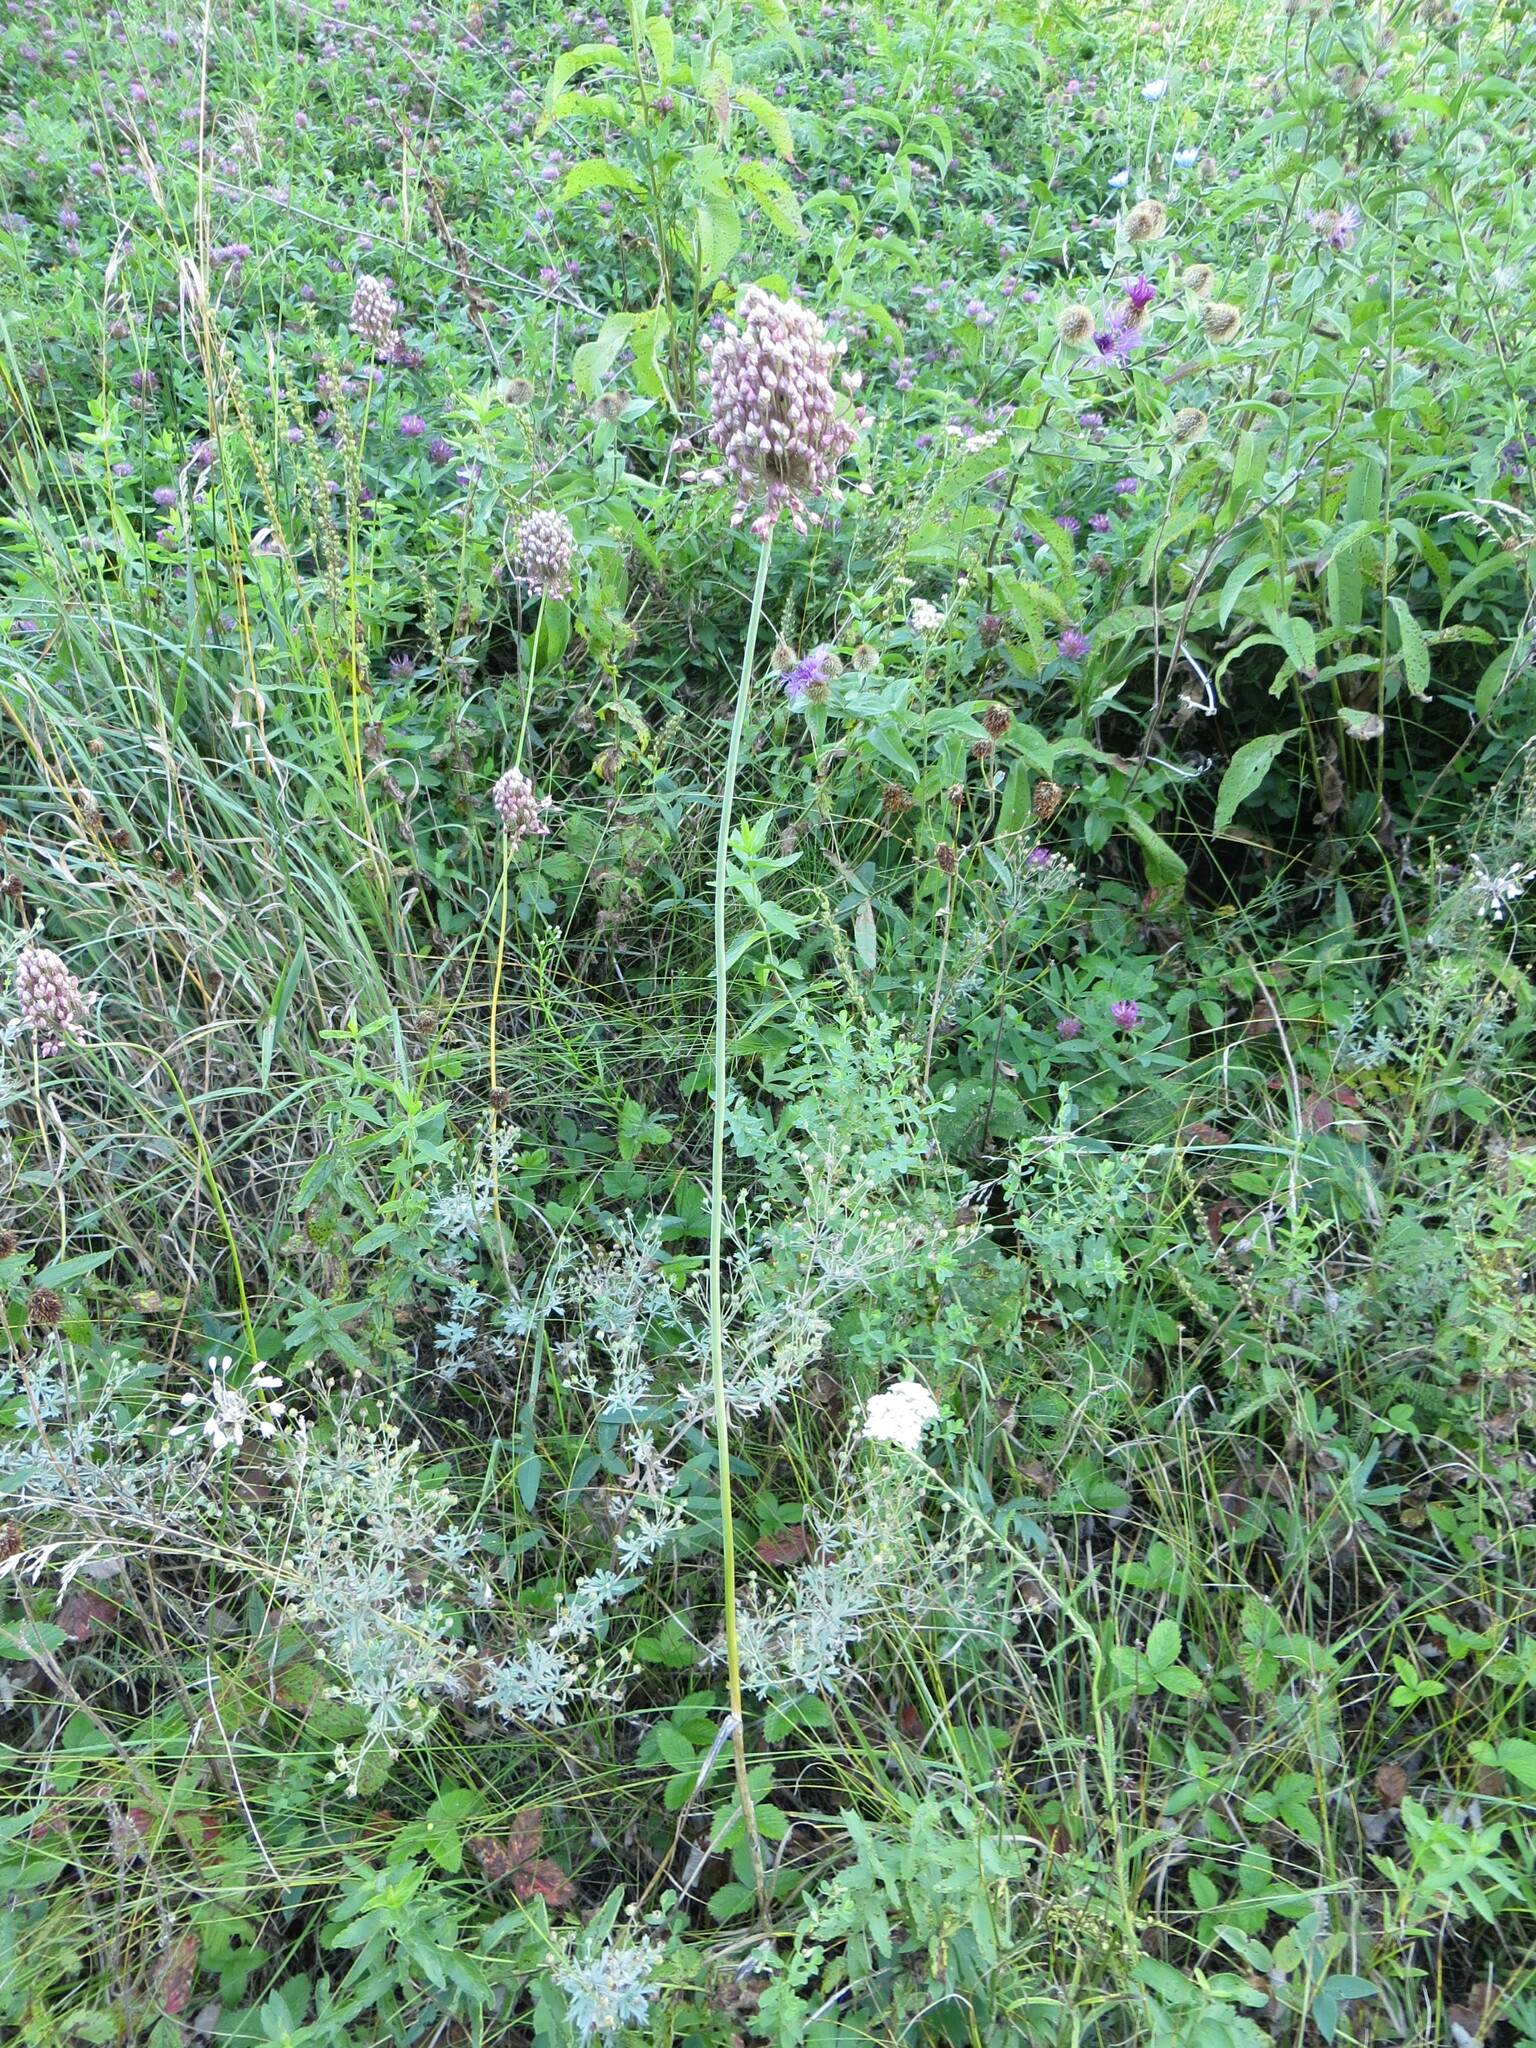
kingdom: Plantae
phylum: Tracheophyta
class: Liliopsida
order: Asparagales
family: Amaryllidaceae
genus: Allium
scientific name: Allium rotundum
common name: Sand leek
